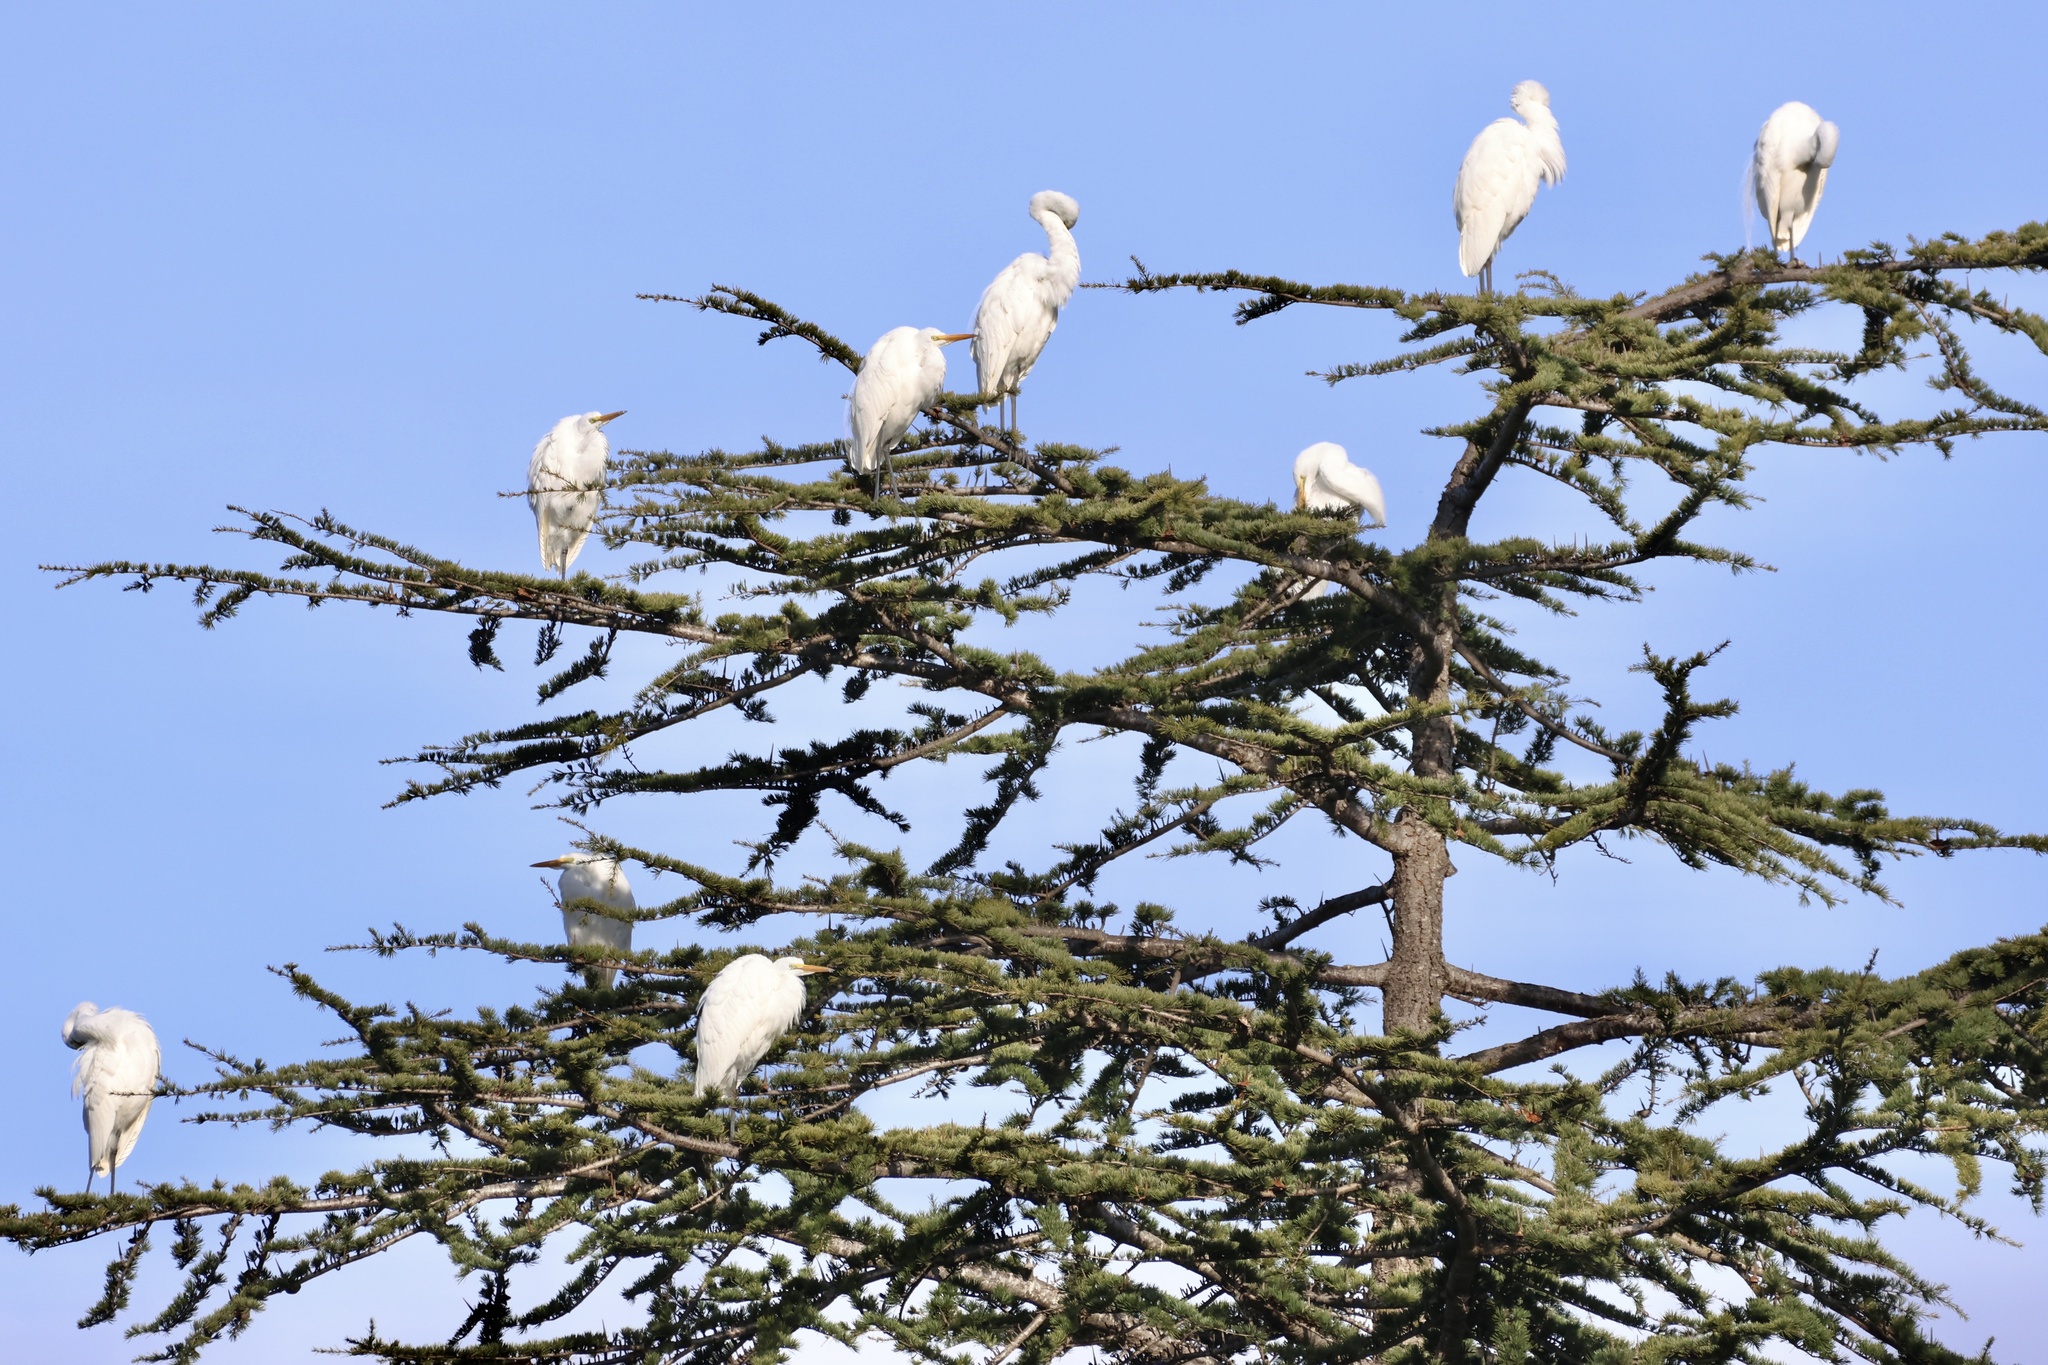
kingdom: Animalia
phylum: Chordata
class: Aves
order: Pelecaniformes
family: Ardeidae
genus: Ardea
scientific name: Ardea alba
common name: Great egret
